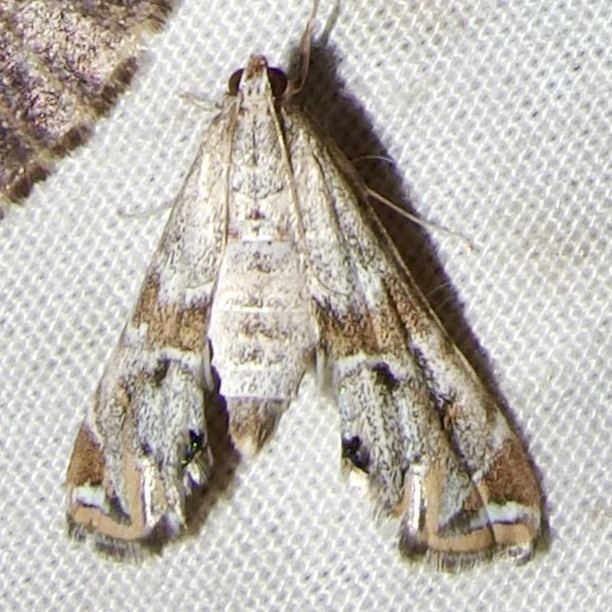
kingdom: Animalia
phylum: Arthropoda
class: Insecta
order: Lepidoptera
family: Crambidae
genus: Petrophila
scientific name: Petrophila jaliscalis
